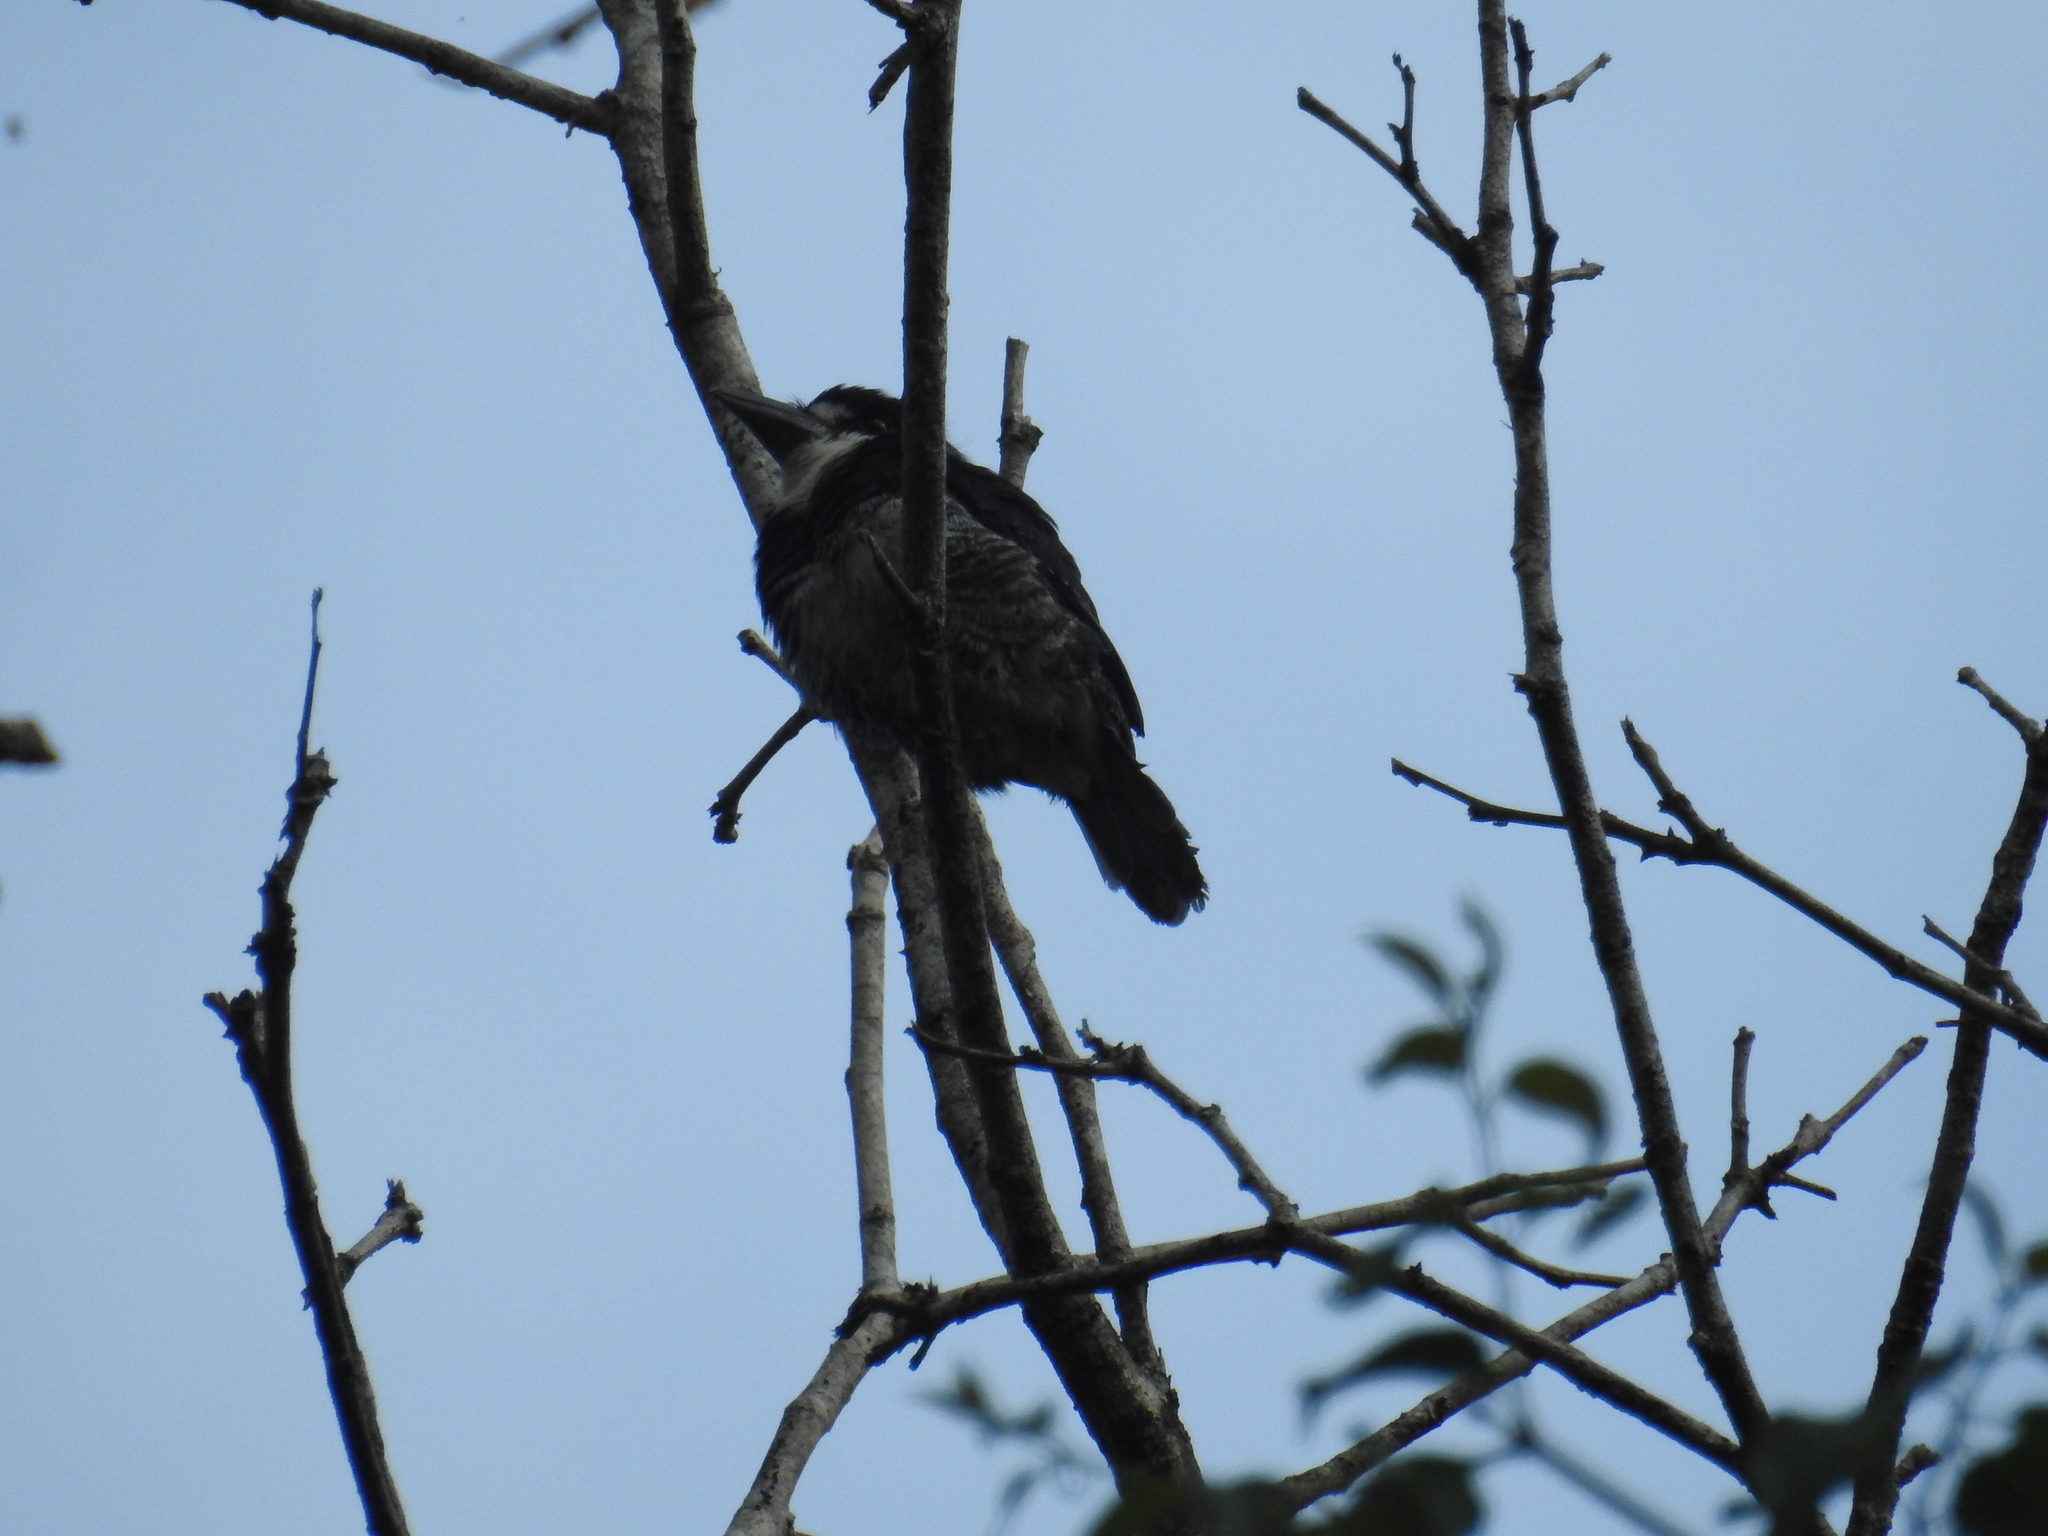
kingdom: Animalia
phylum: Chordata
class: Aves
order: Piciformes
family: Bucconidae
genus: Notharchus
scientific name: Notharchus tectus
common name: Pied puffbird
